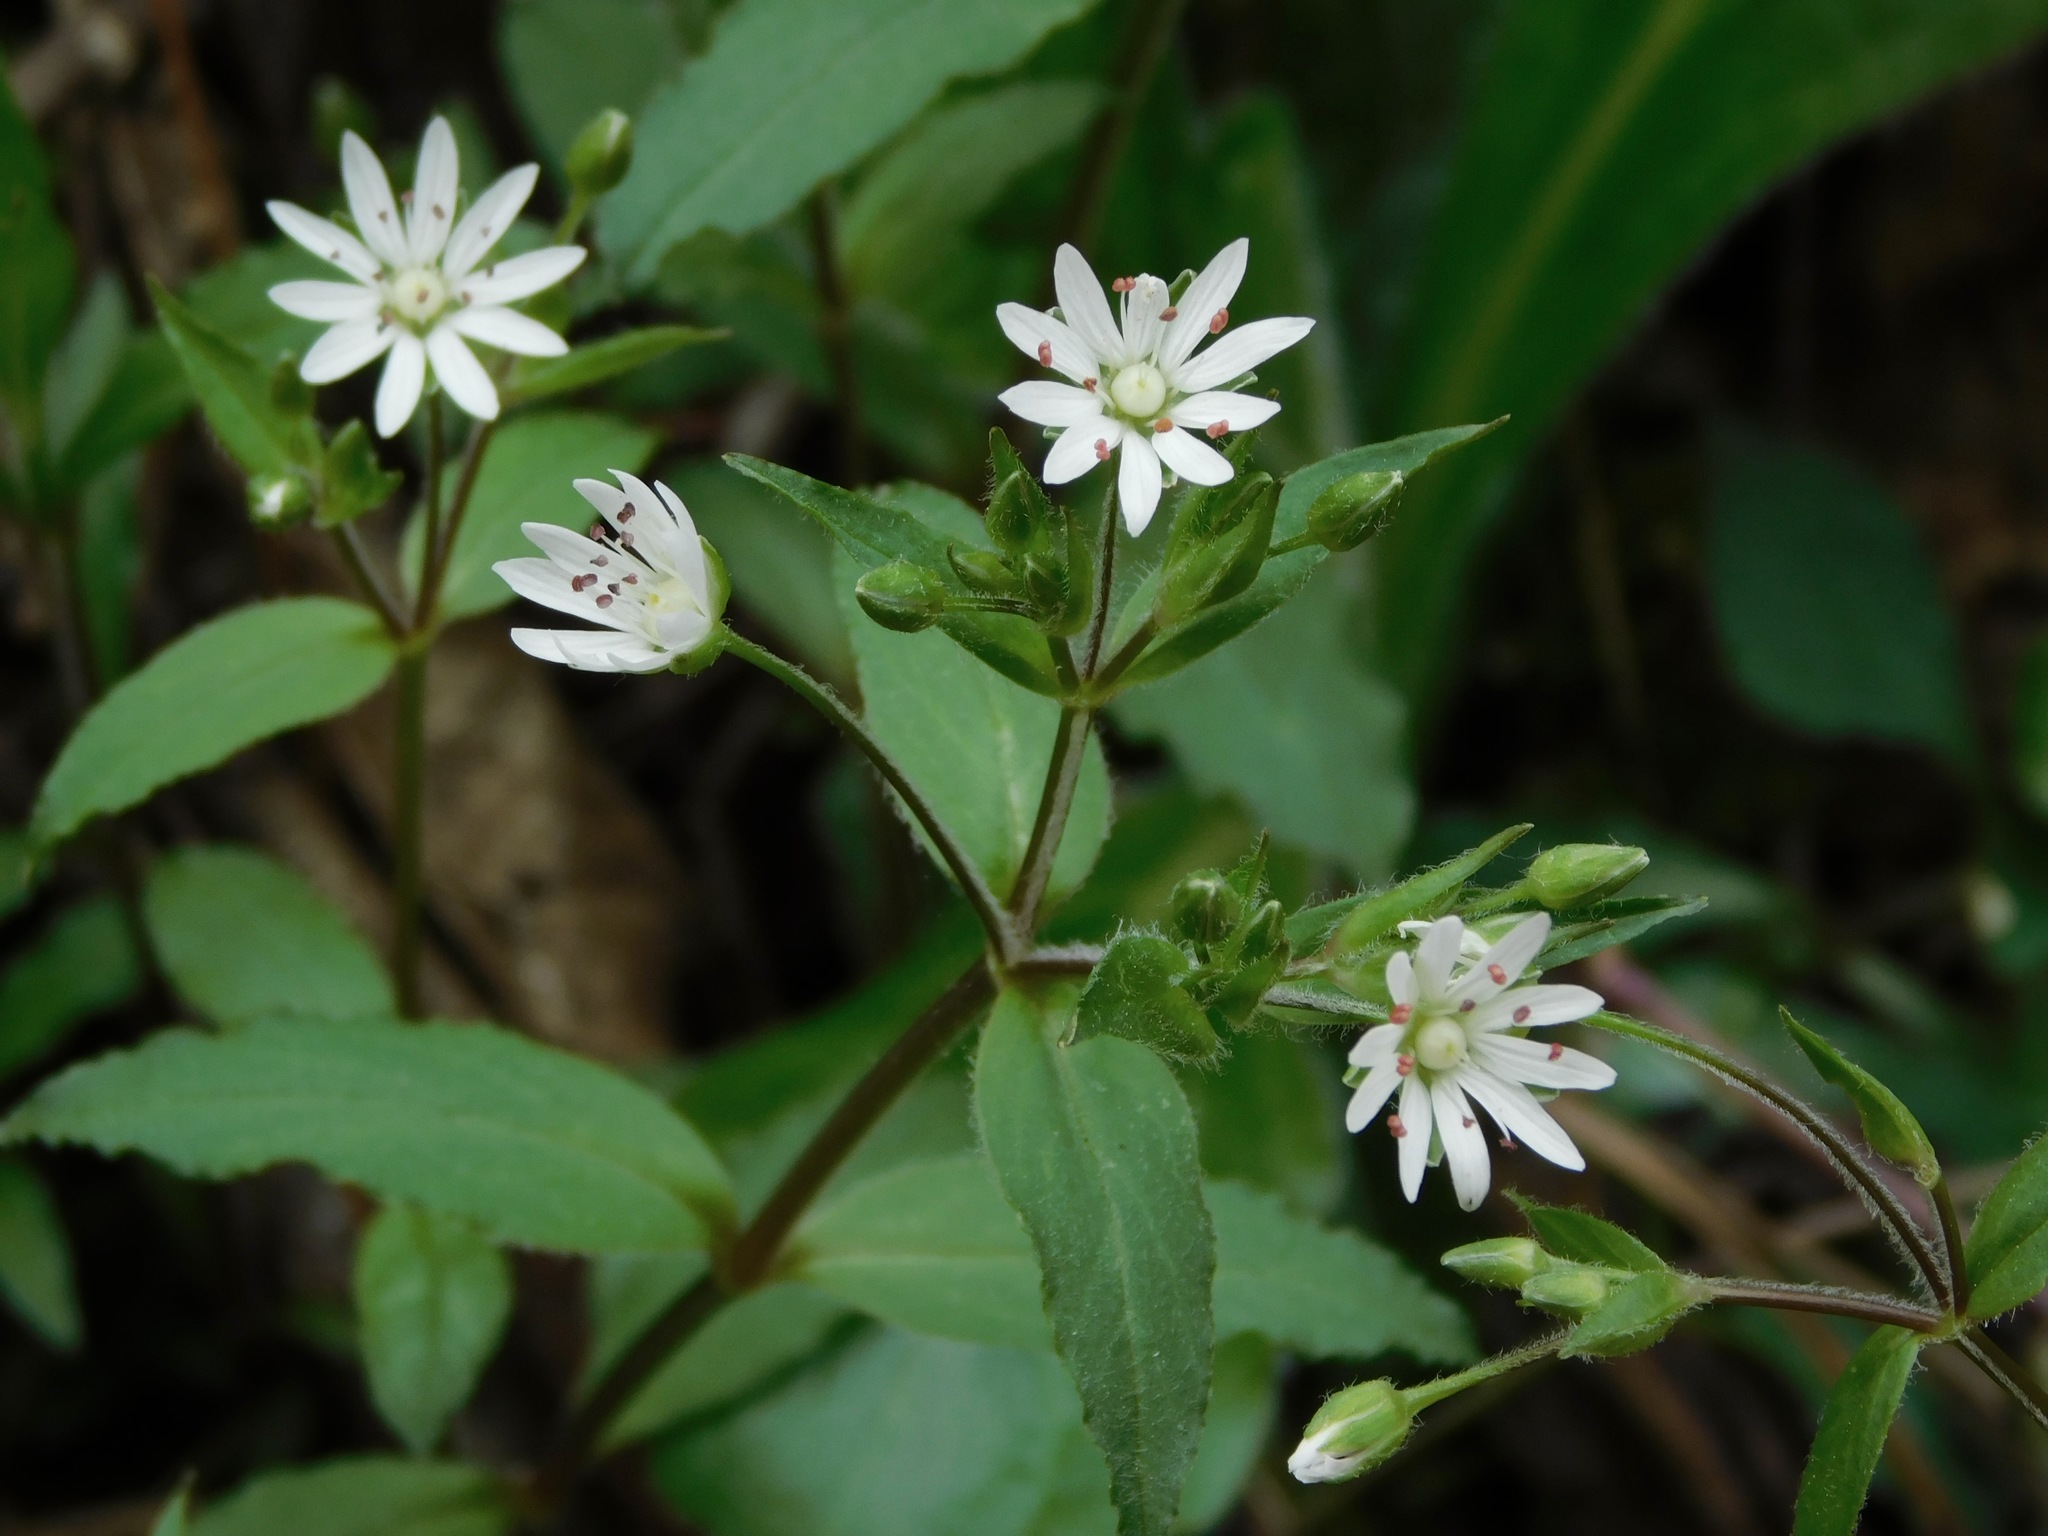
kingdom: Plantae
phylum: Tracheophyta
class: Magnoliopsida
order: Caryophyllales
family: Caryophyllaceae
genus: Stellaria
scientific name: Stellaria pubera
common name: Star chickweed
